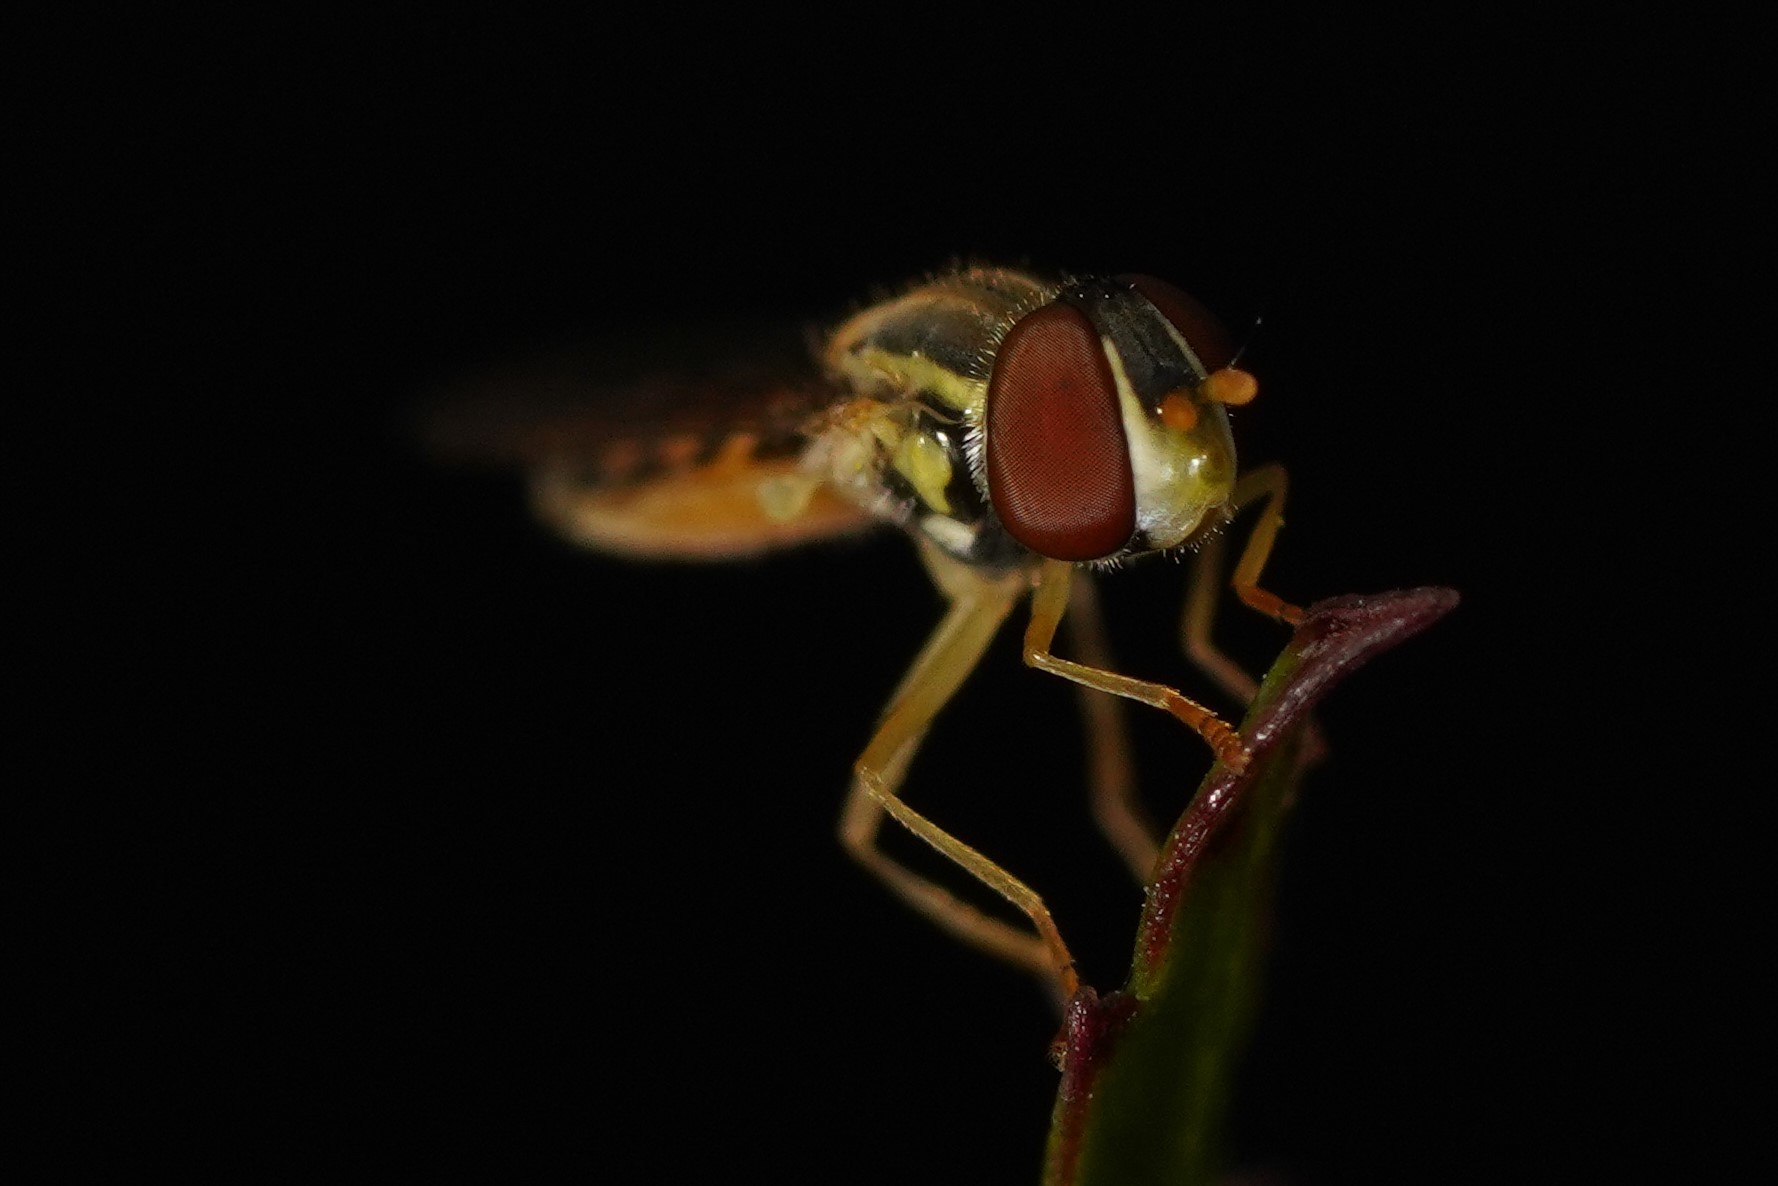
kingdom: Animalia
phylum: Arthropoda
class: Insecta
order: Diptera
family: Syrphidae
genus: Toxomerus
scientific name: Toxomerus
